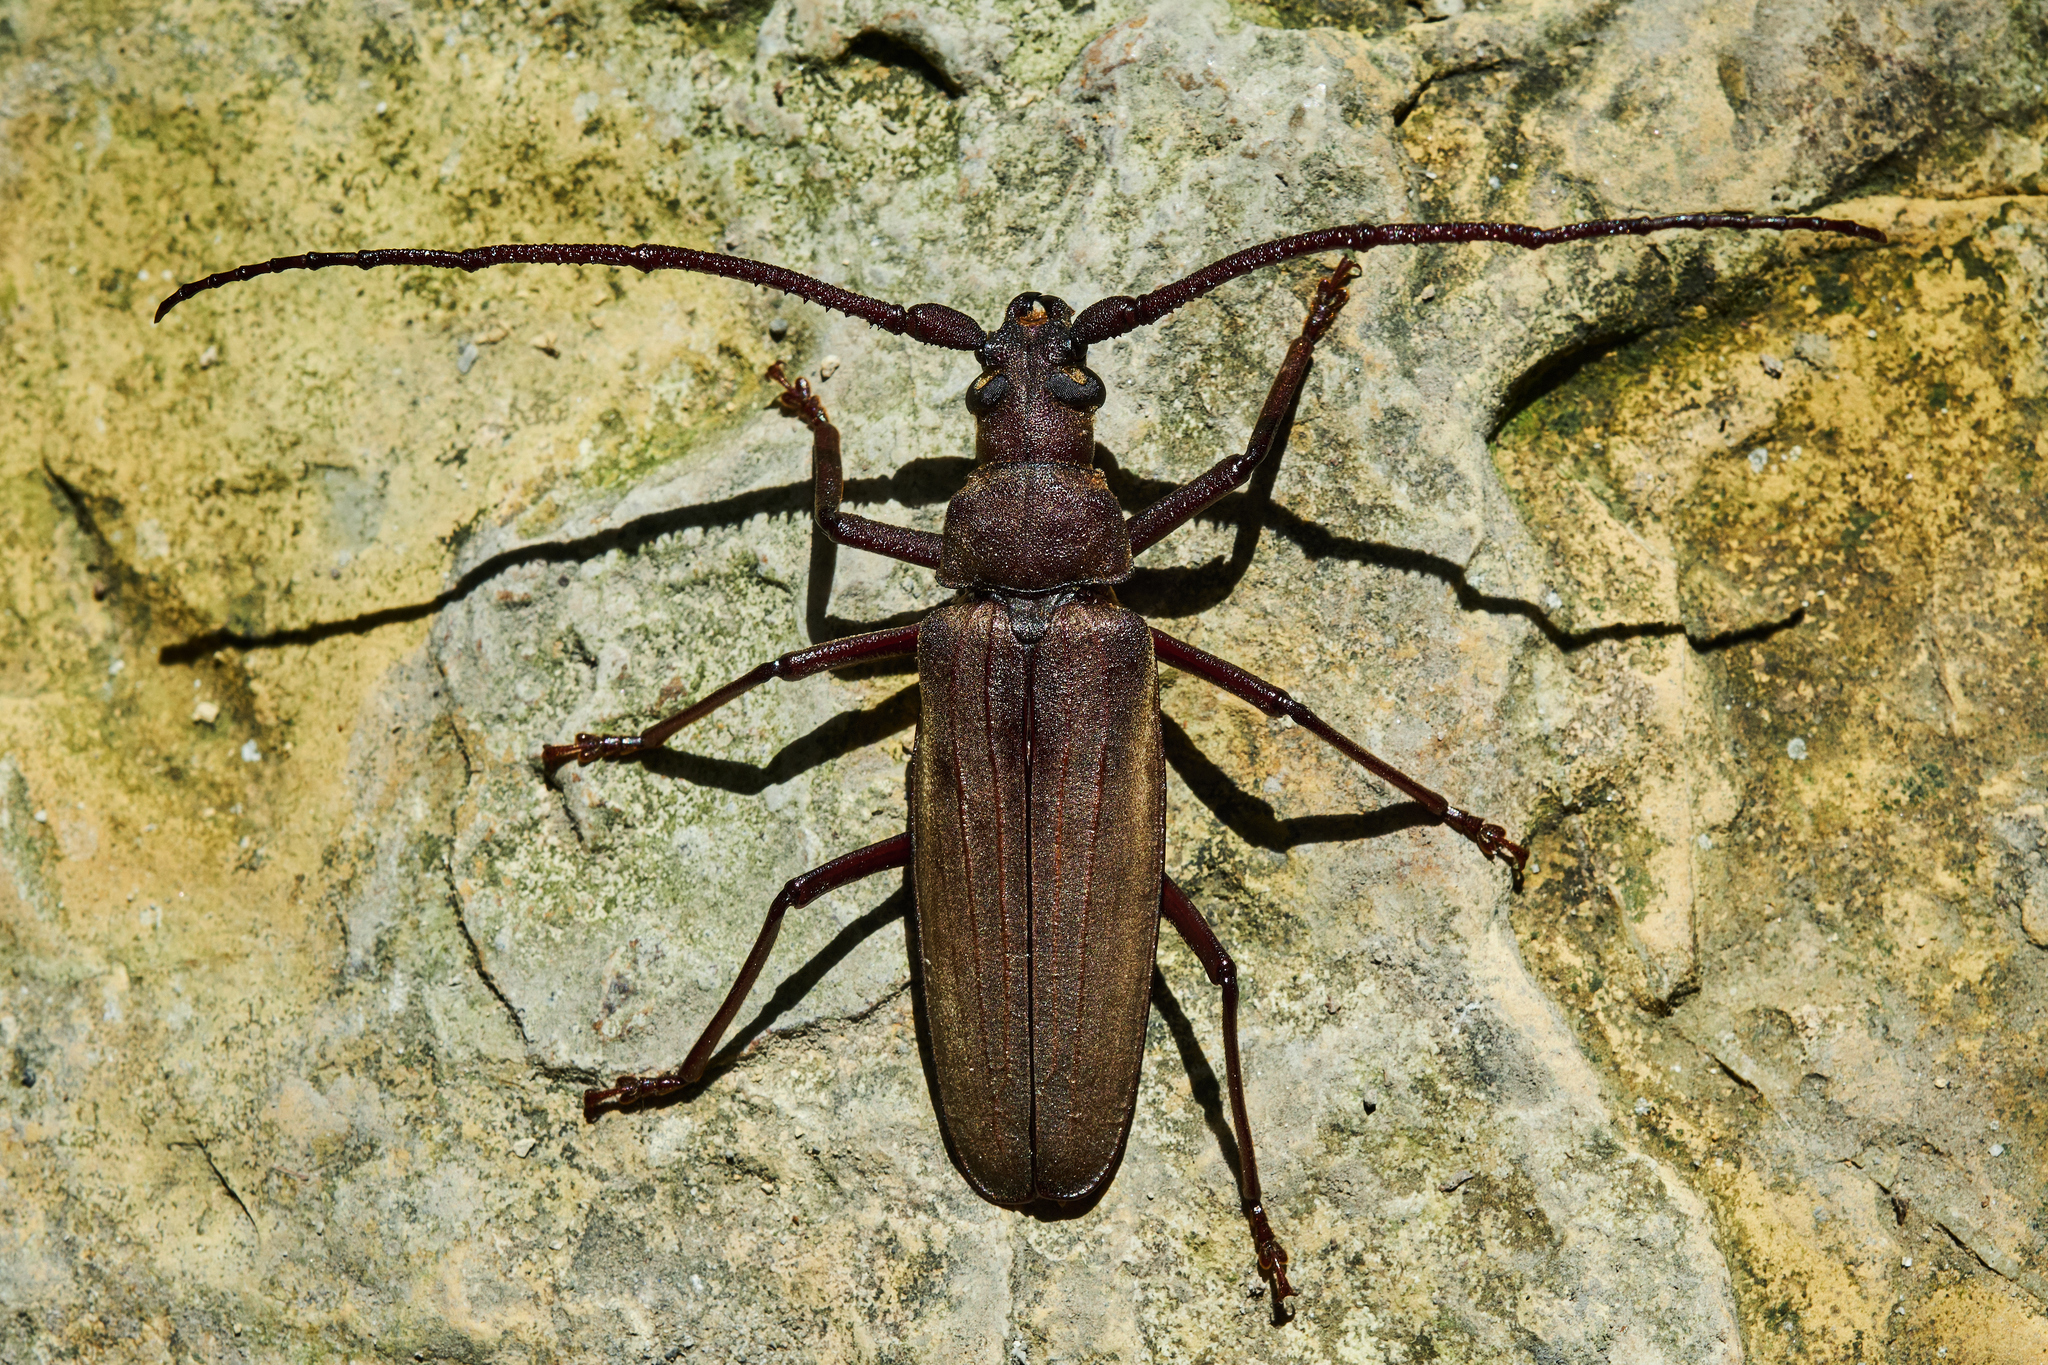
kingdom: Animalia
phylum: Arthropoda
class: Insecta
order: Coleoptera
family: Cerambycidae
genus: Aegosoma
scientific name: Aegosoma scabricorne
